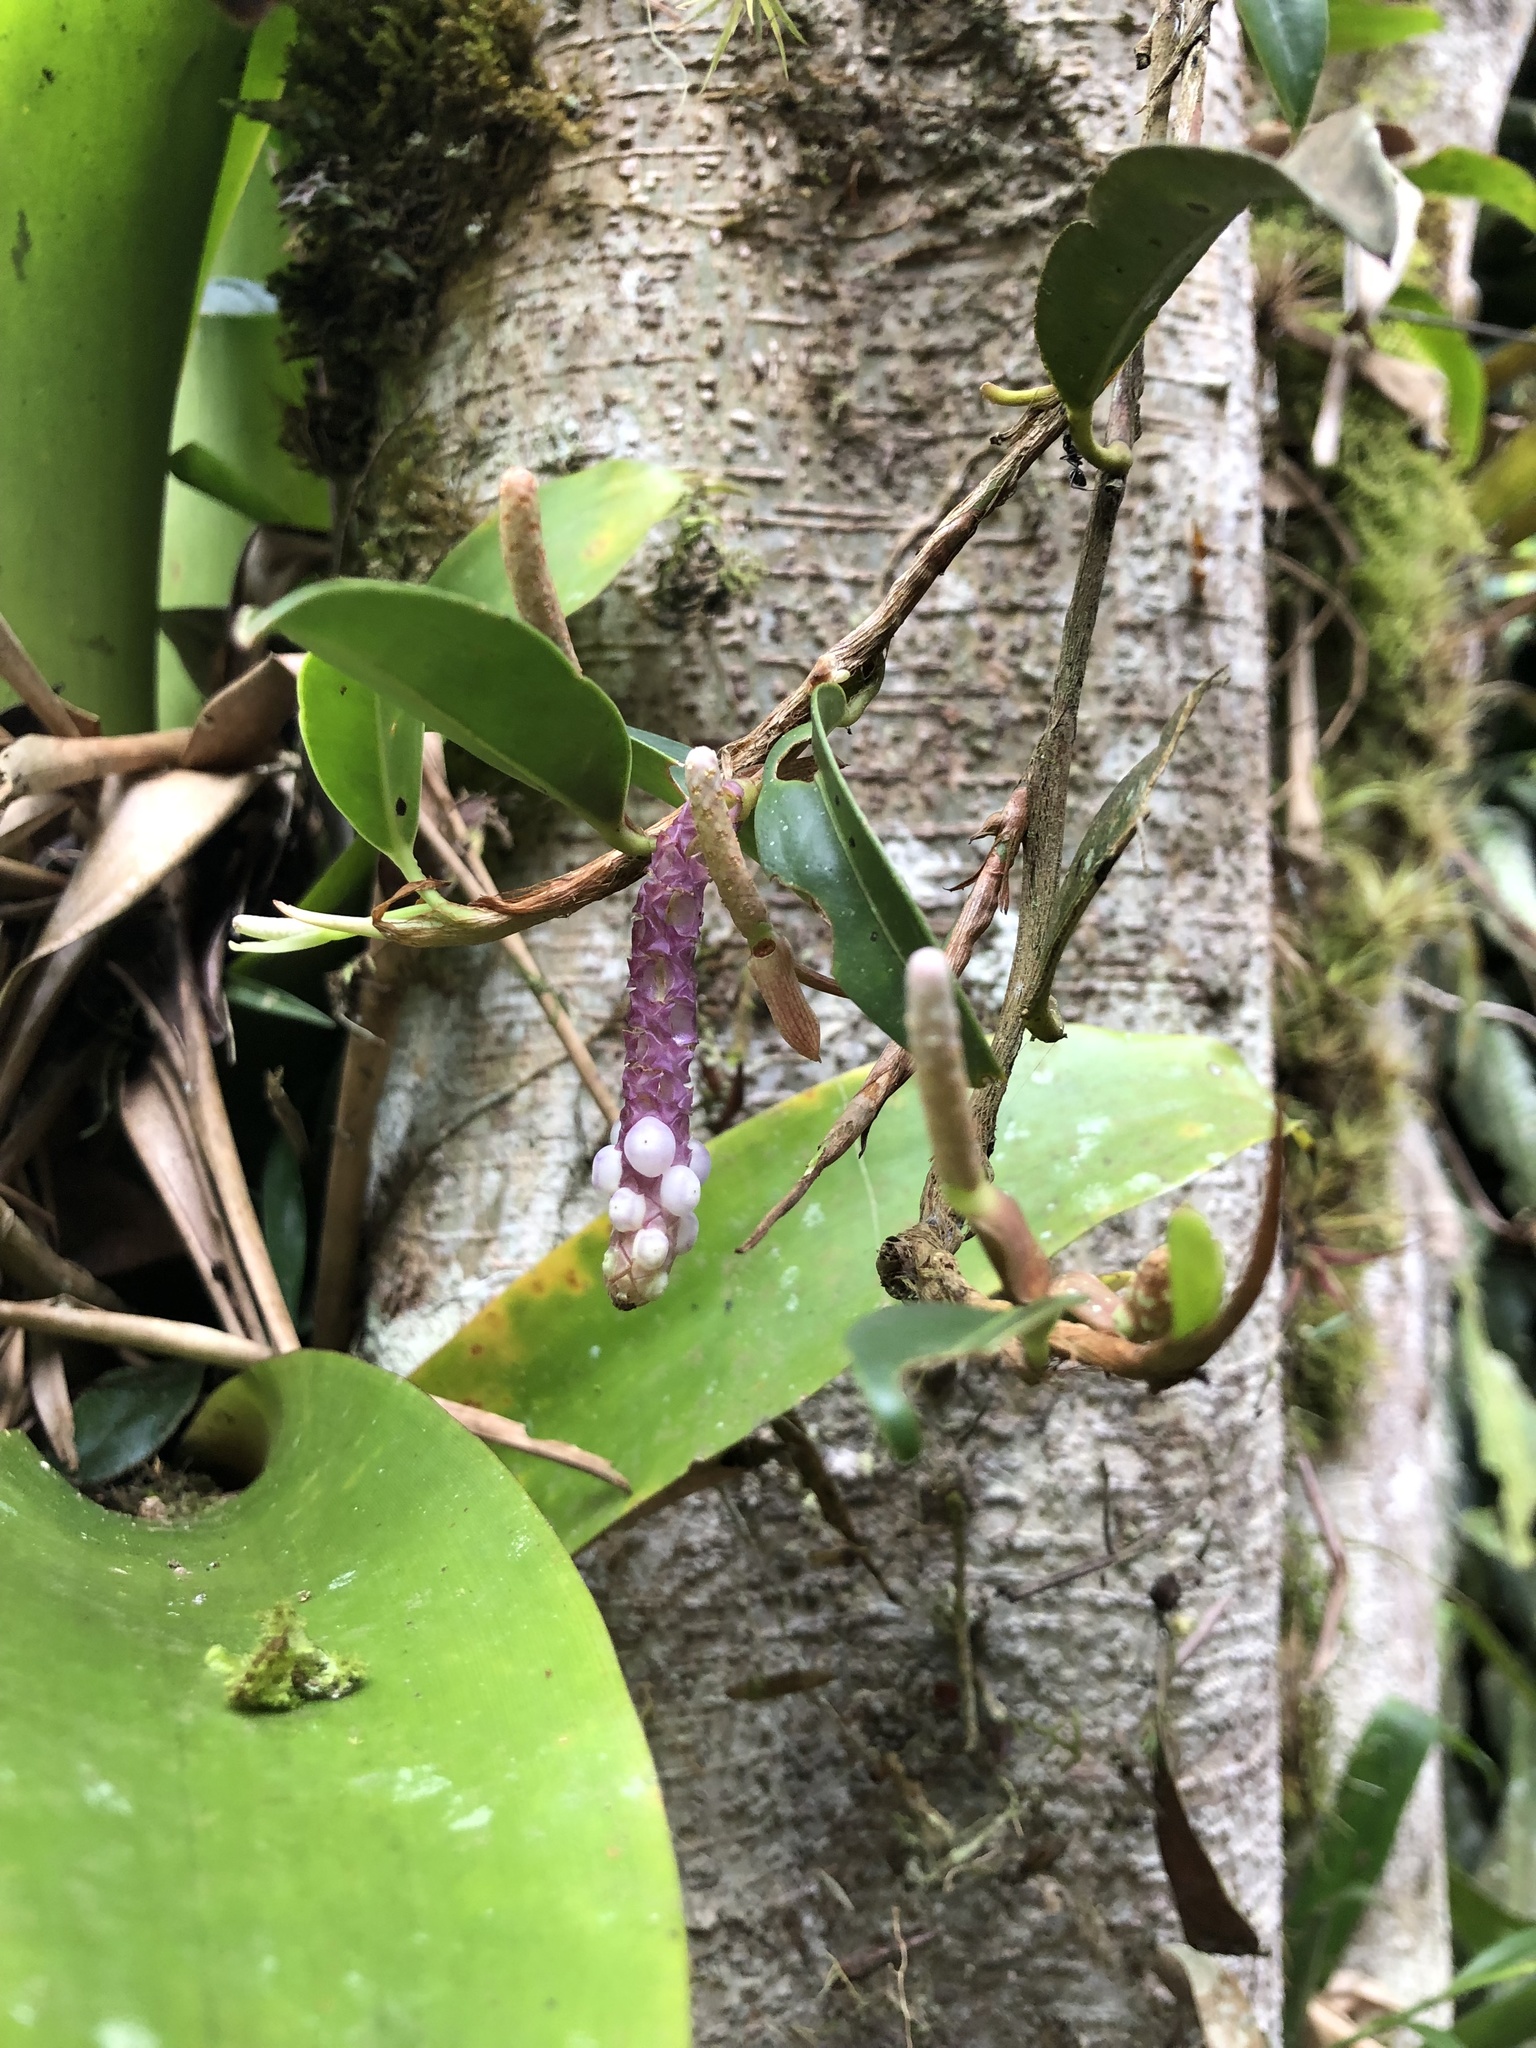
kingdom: Plantae
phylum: Tracheophyta
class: Liliopsida
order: Alismatales
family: Araceae
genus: Anthurium
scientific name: Anthurium scandens
